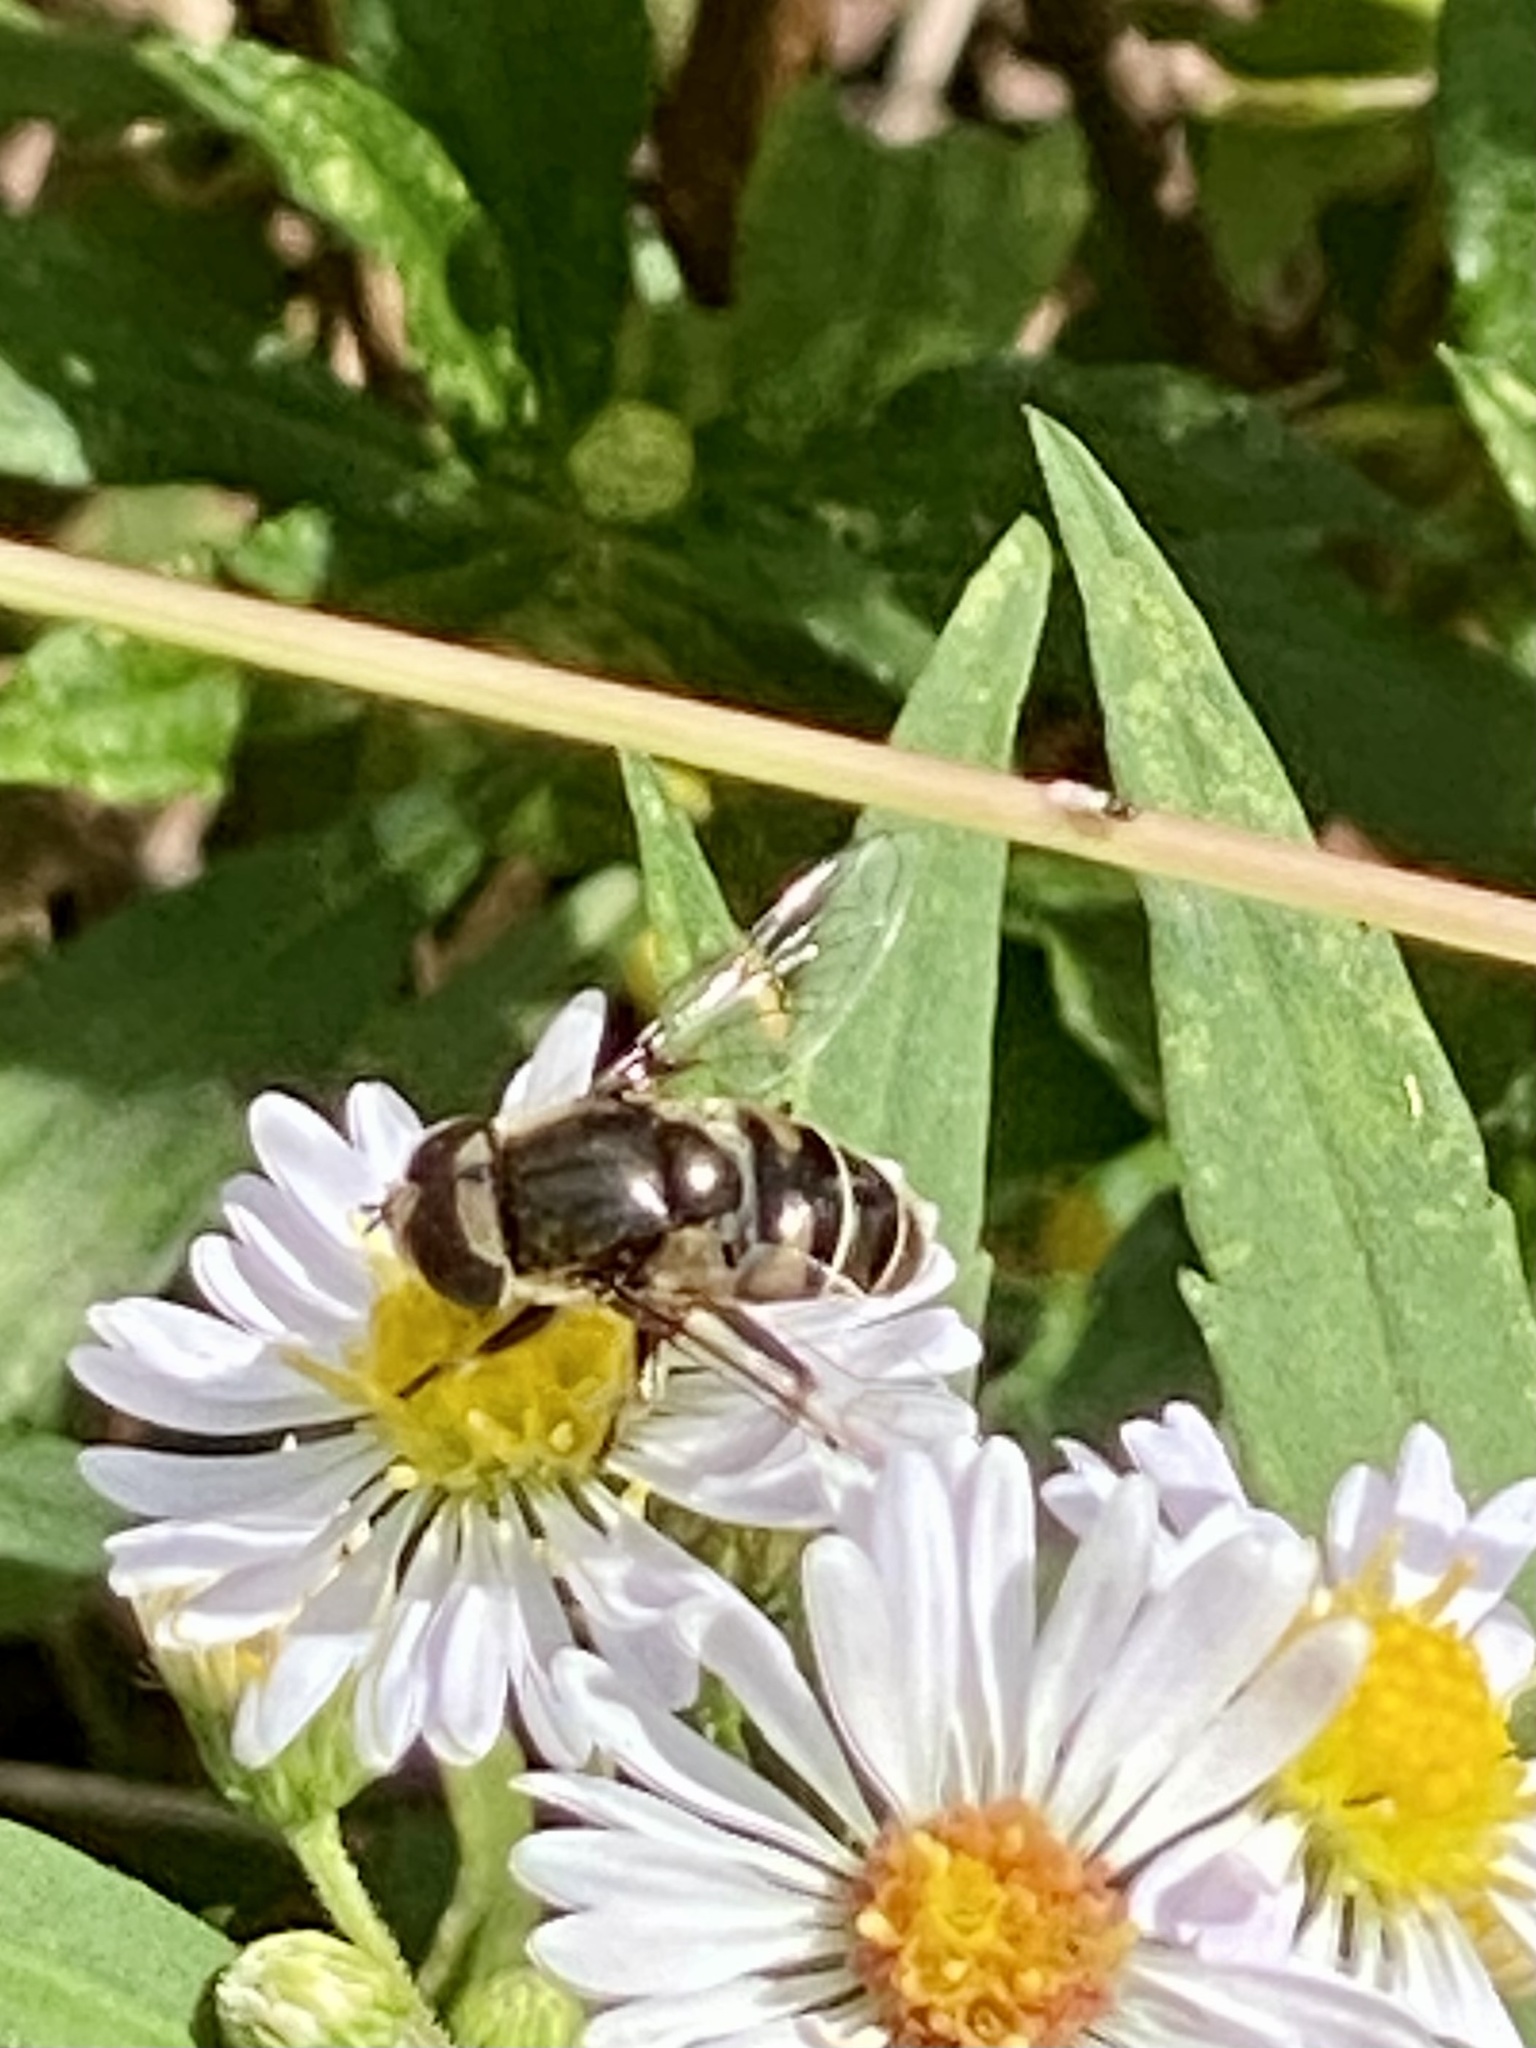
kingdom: Animalia
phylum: Arthropoda
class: Insecta
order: Diptera
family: Syrphidae
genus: Eristalis
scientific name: Eristalis dimidiata
